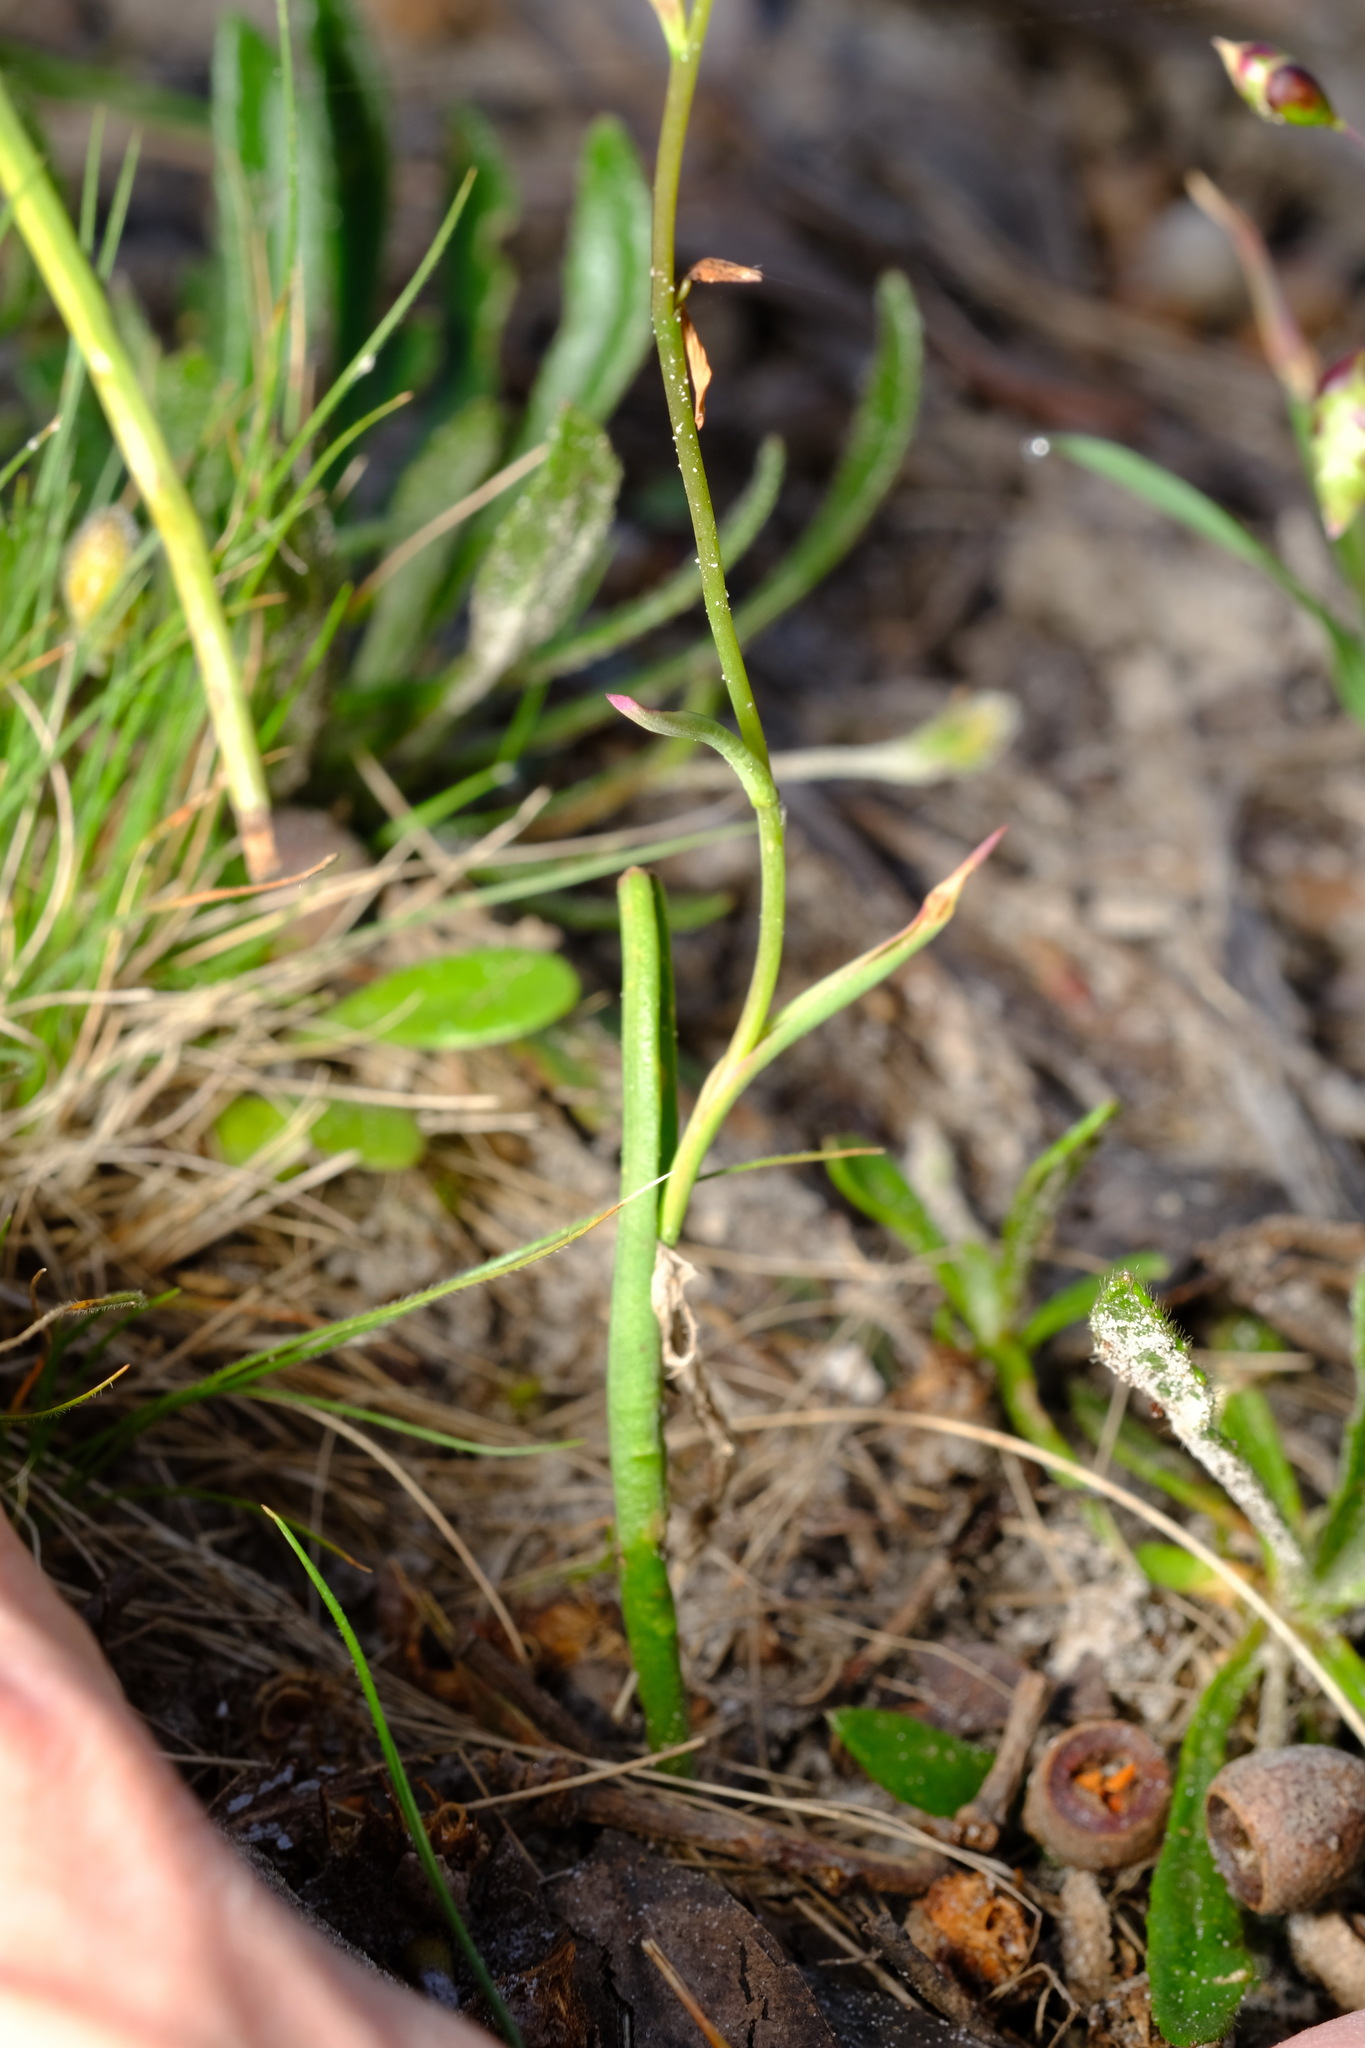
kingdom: Plantae
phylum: Tracheophyta
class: Liliopsida
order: Asparagales
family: Orchidaceae
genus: Thelymitra
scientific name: Thelymitra ixioides
